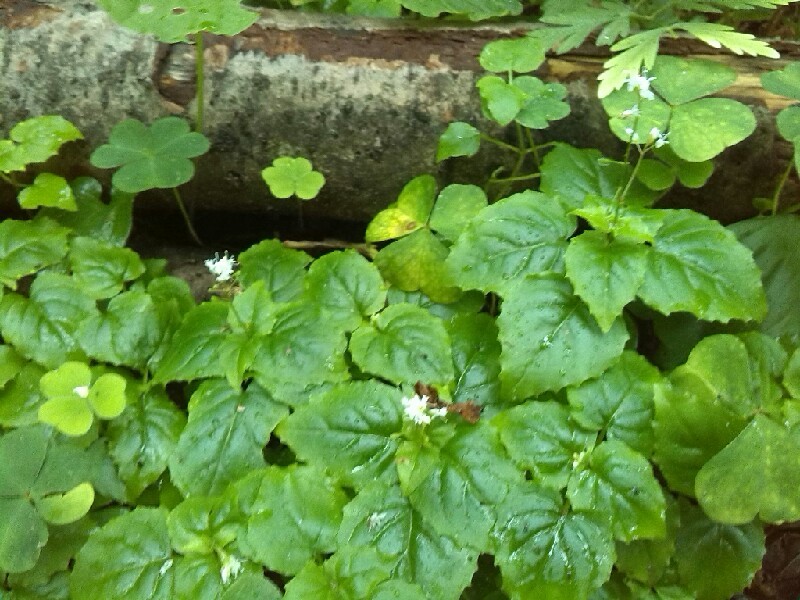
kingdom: Plantae
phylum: Tracheophyta
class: Magnoliopsida
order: Myrtales
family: Onagraceae
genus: Circaea
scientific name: Circaea alpina
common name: Alpine enchanter's-nightshade
